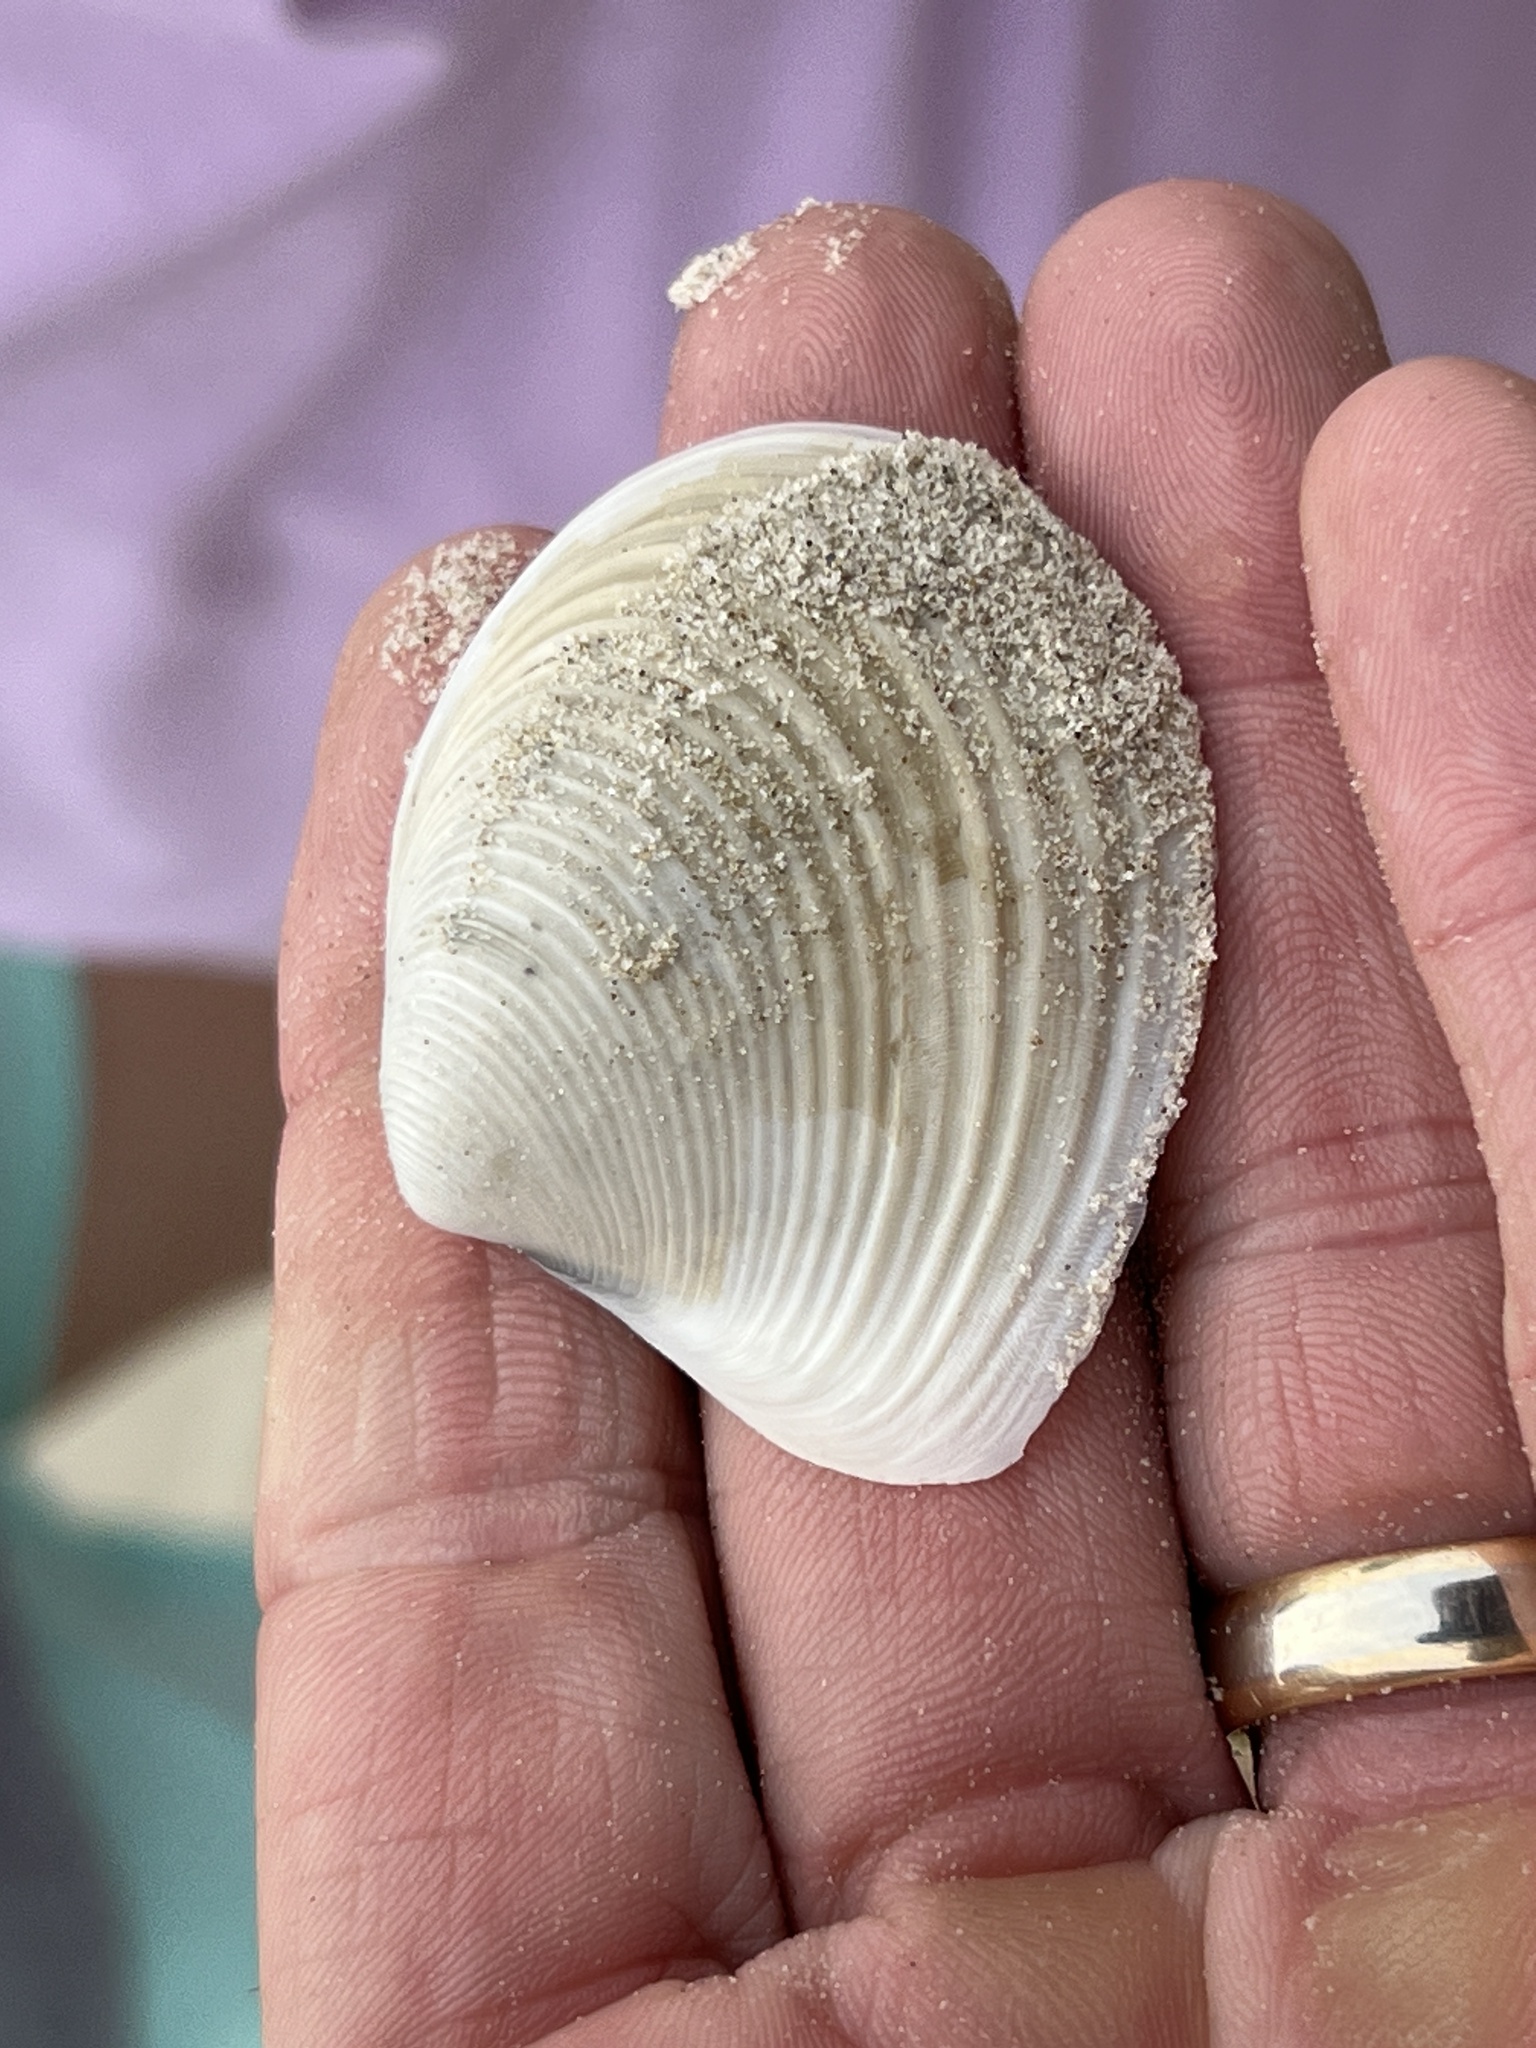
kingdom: Animalia
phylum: Mollusca
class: Bivalvia
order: Venerida
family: Anatinellidae
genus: Raeta
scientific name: Raeta plicatella
